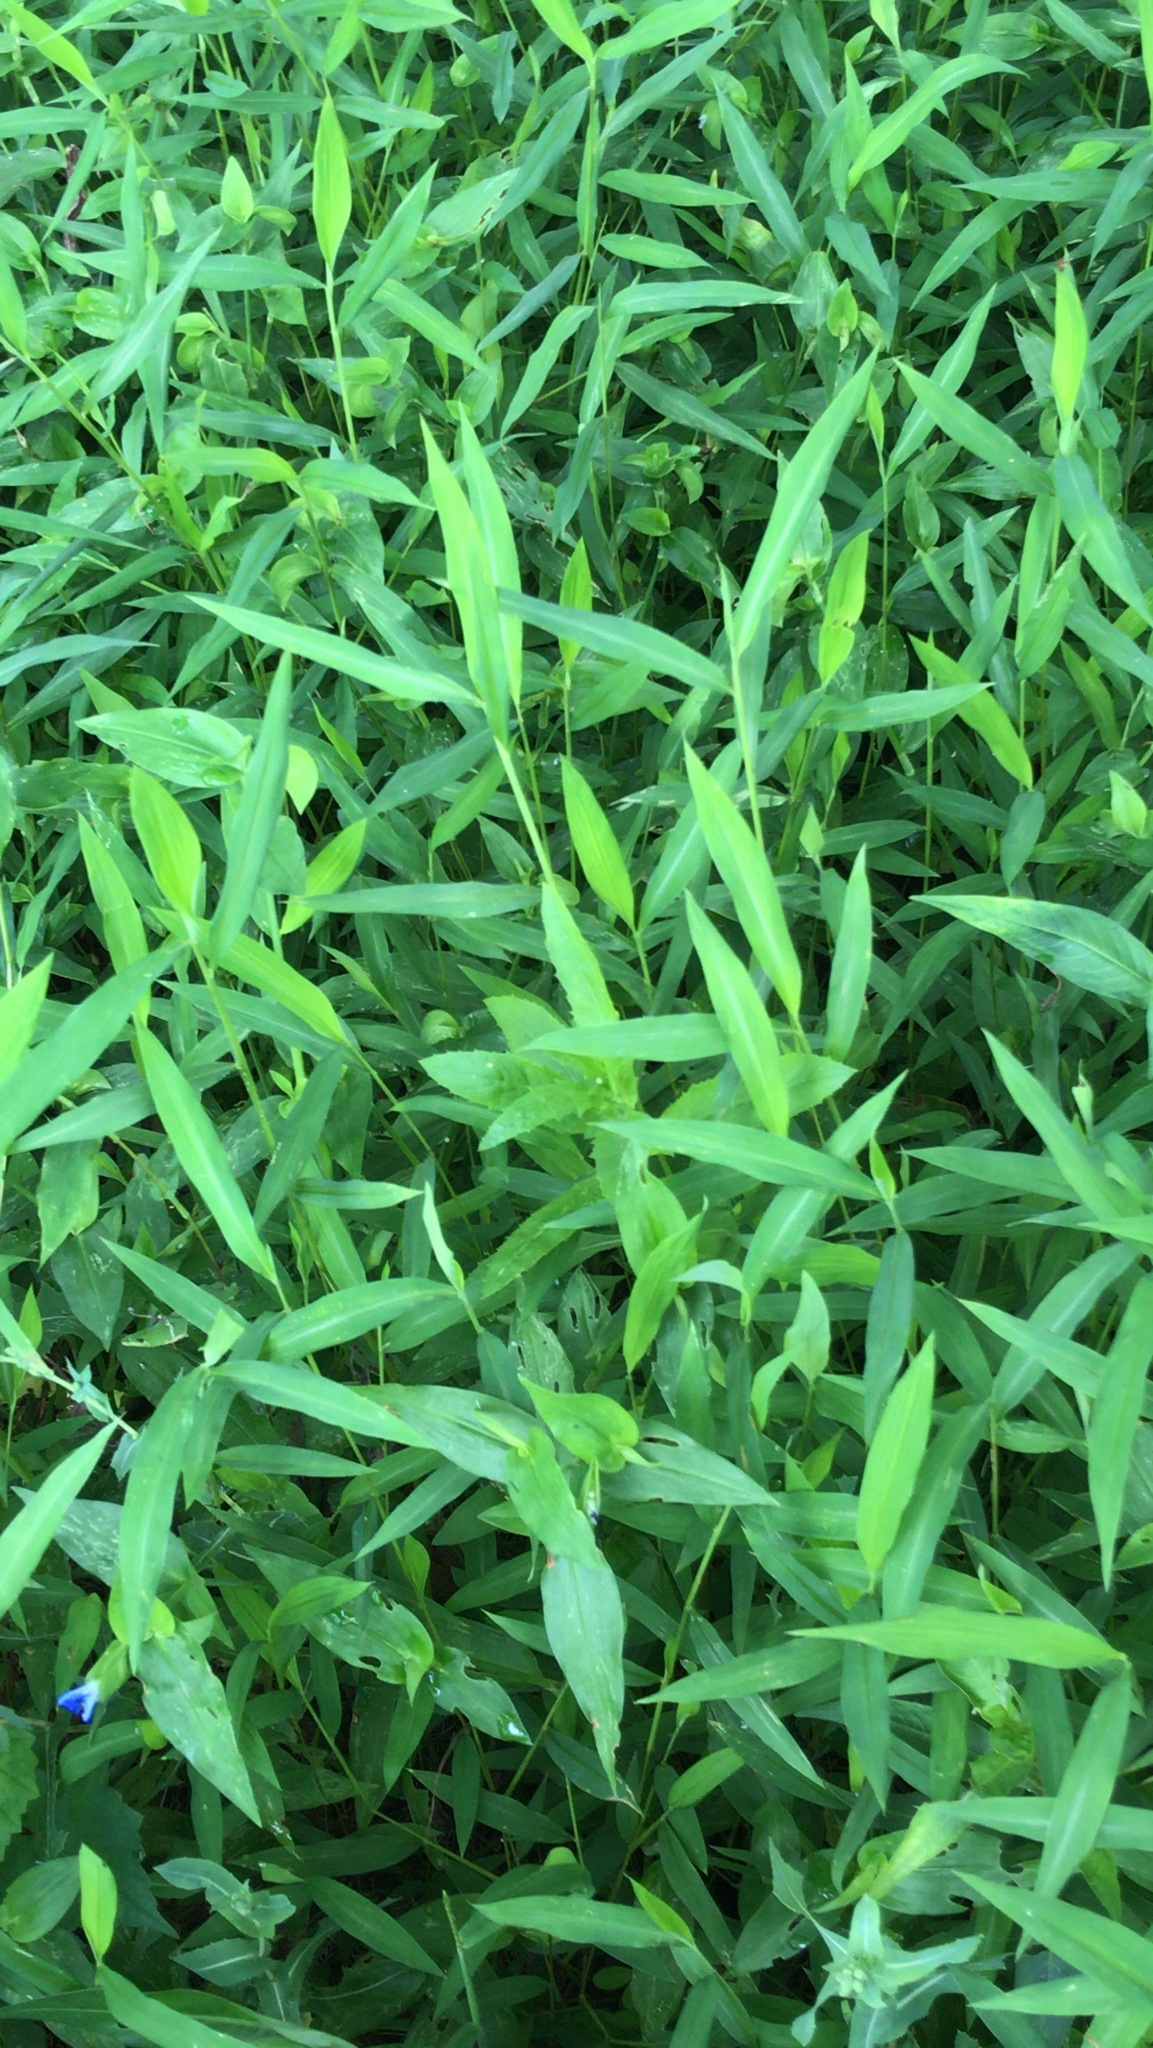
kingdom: Plantae
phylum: Tracheophyta
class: Liliopsida
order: Poales
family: Poaceae
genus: Microstegium
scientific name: Microstegium vimineum
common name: Japanese stiltgrass
